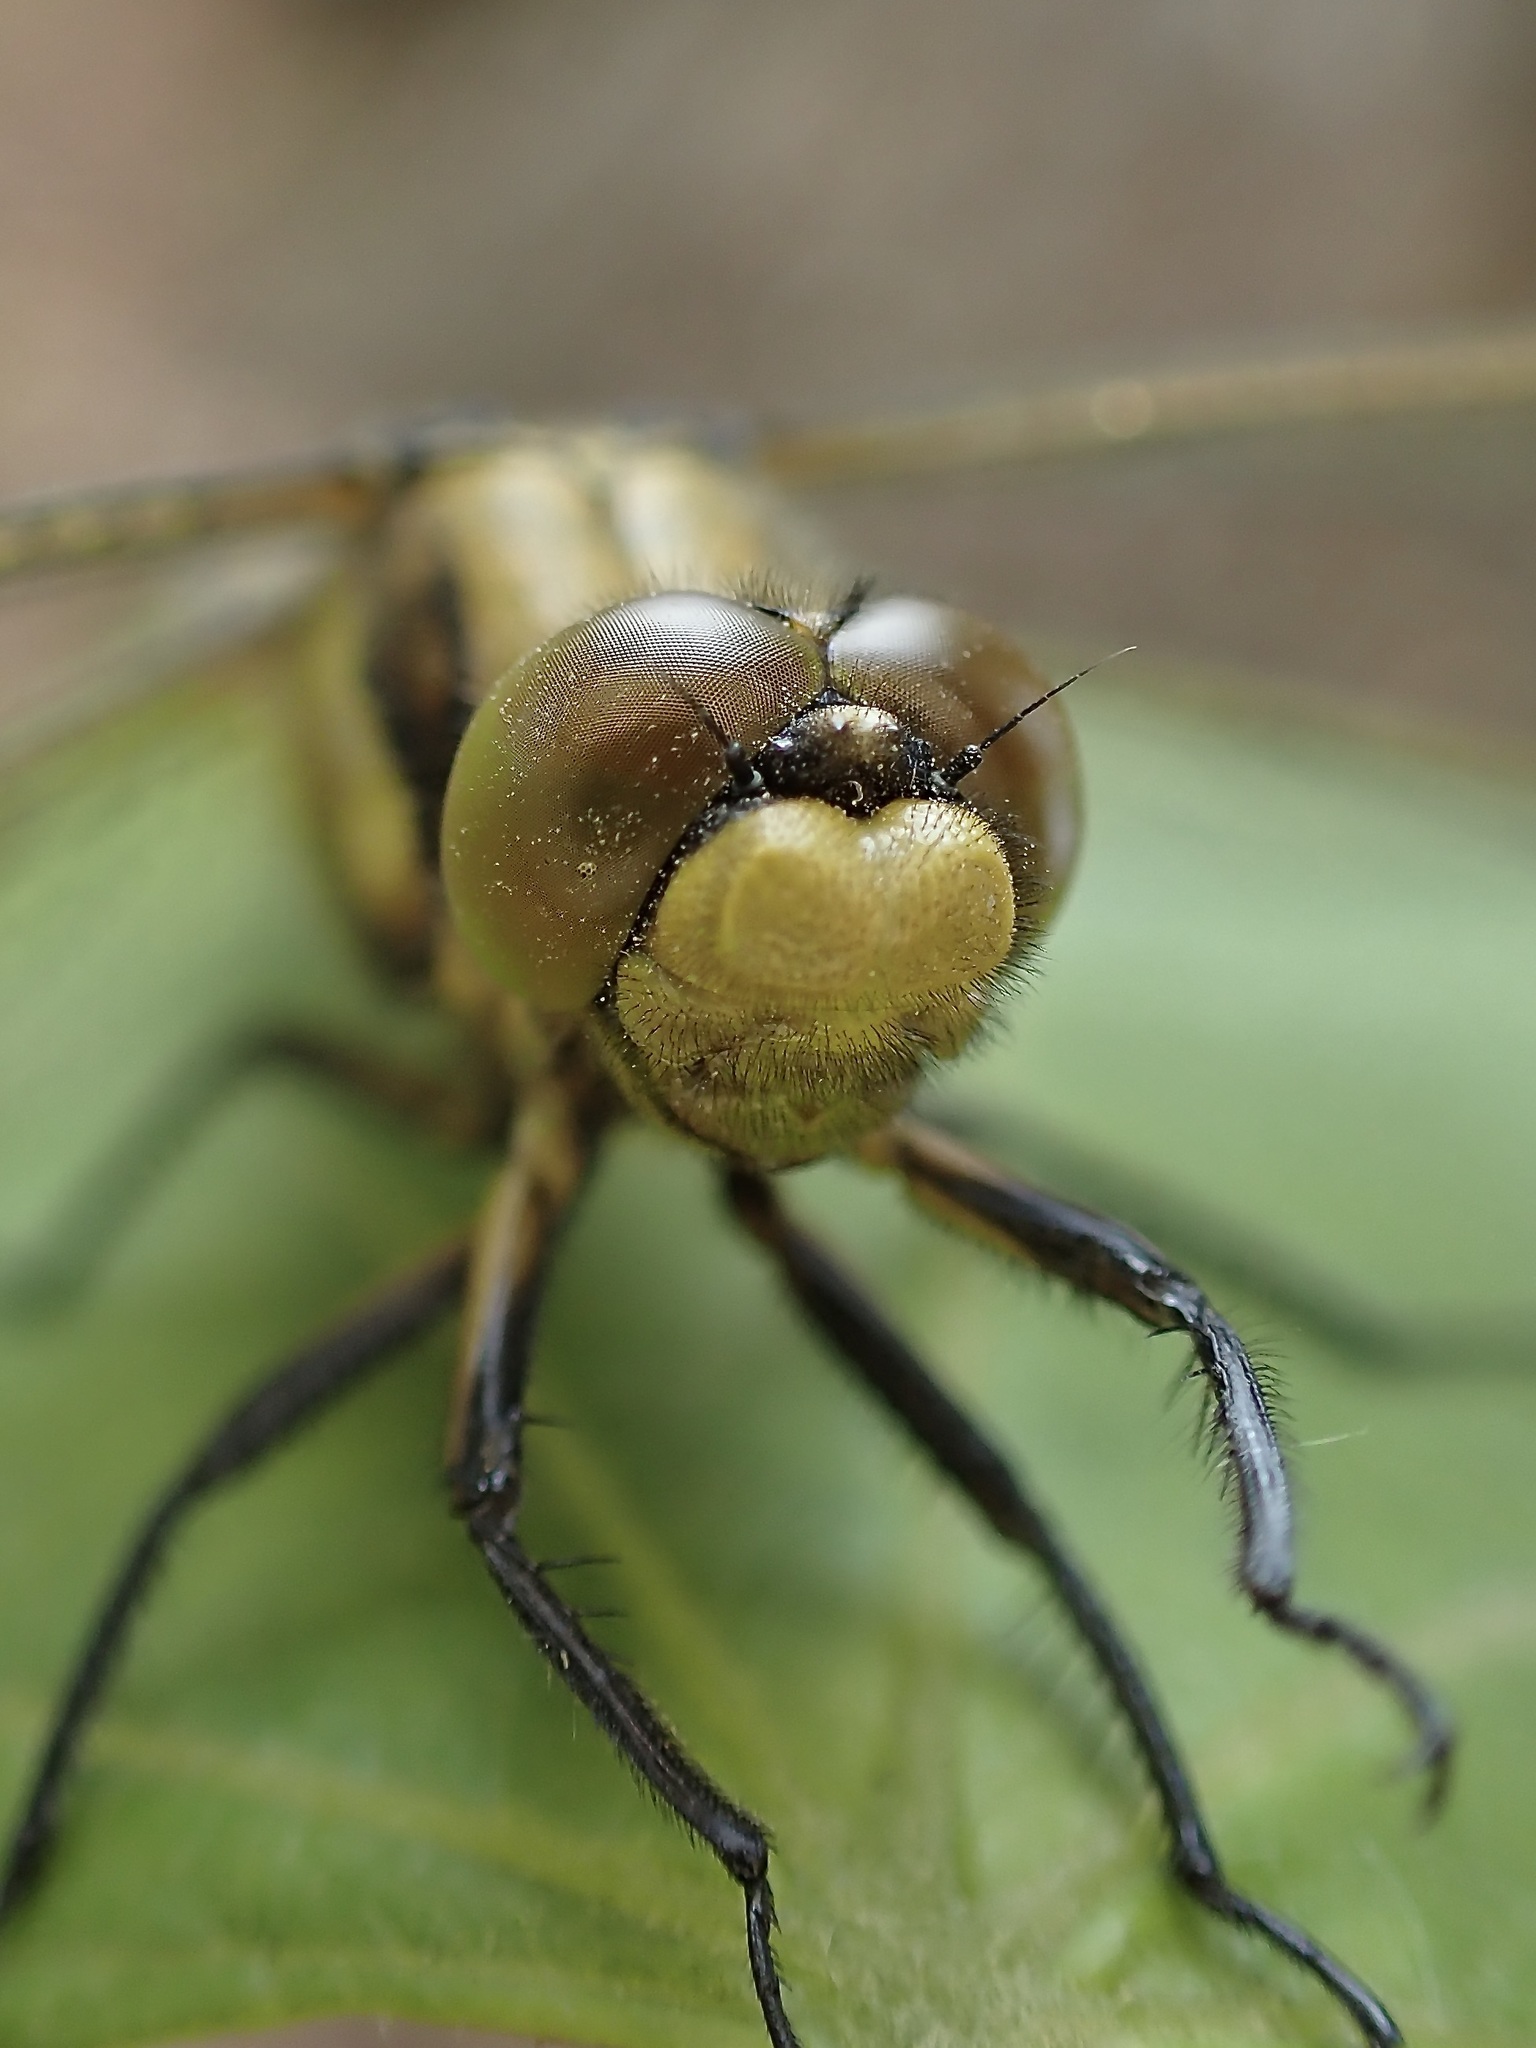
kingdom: Animalia
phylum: Arthropoda
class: Insecta
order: Odonata
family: Libellulidae
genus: Orthetrum
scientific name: Orthetrum cancellatum
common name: Black-tailed skimmer
